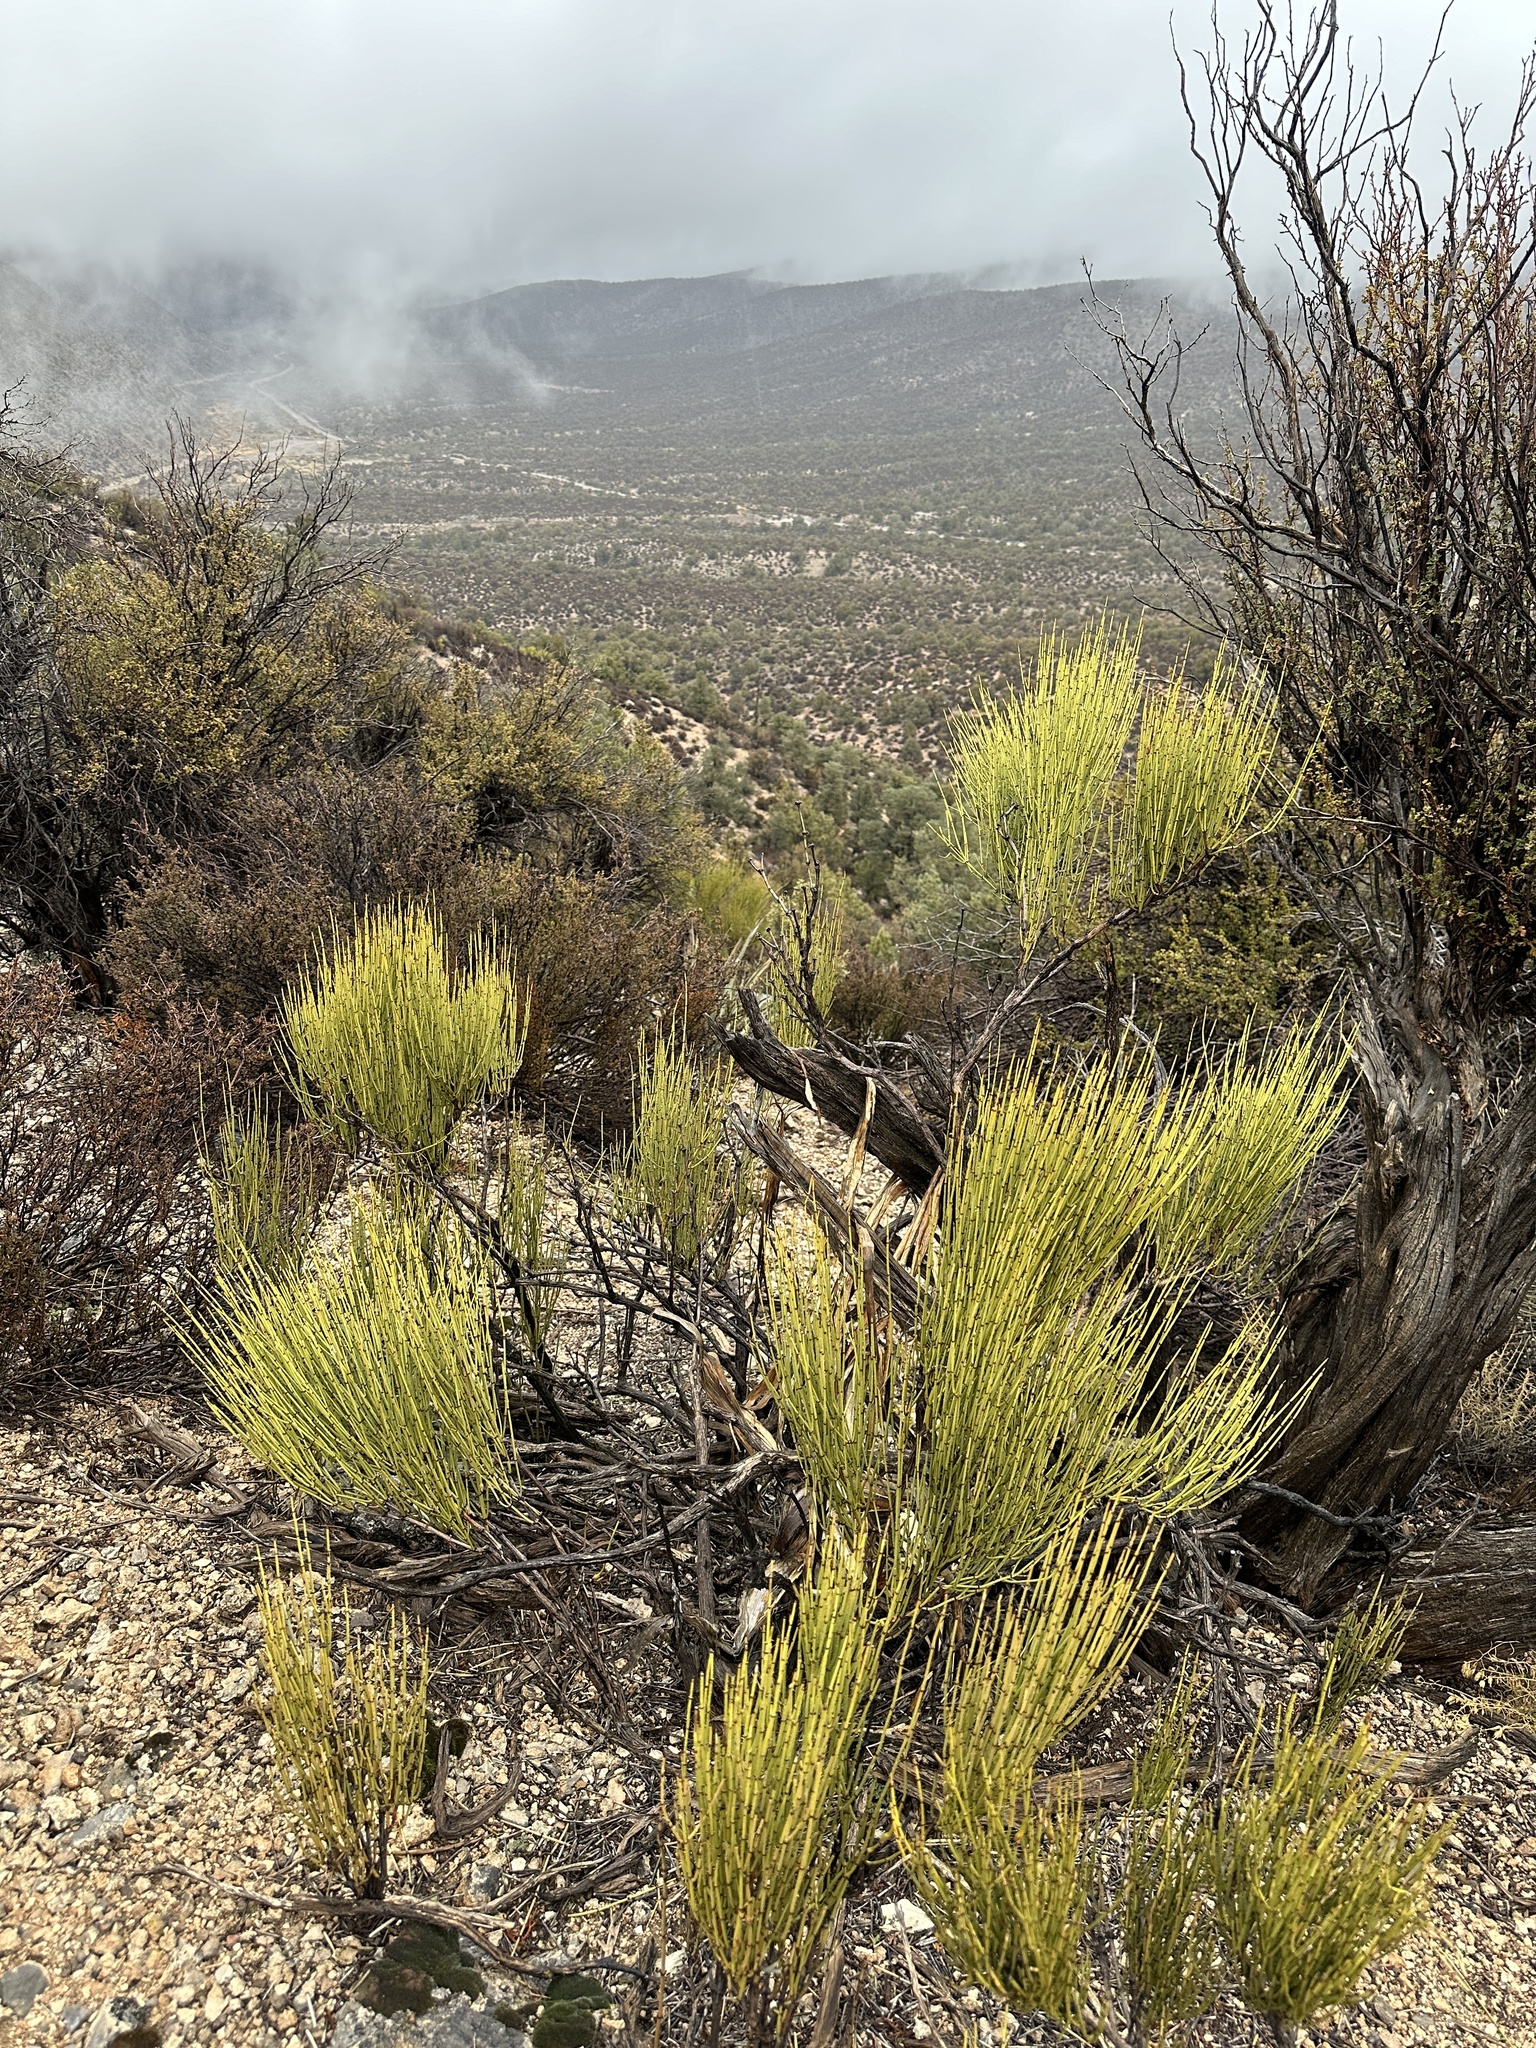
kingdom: Plantae
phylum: Tracheophyta
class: Gnetopsida
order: Ephedrales
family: Ephedraceae
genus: Ephedra
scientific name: Ephedra viridis
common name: Green ephedra
